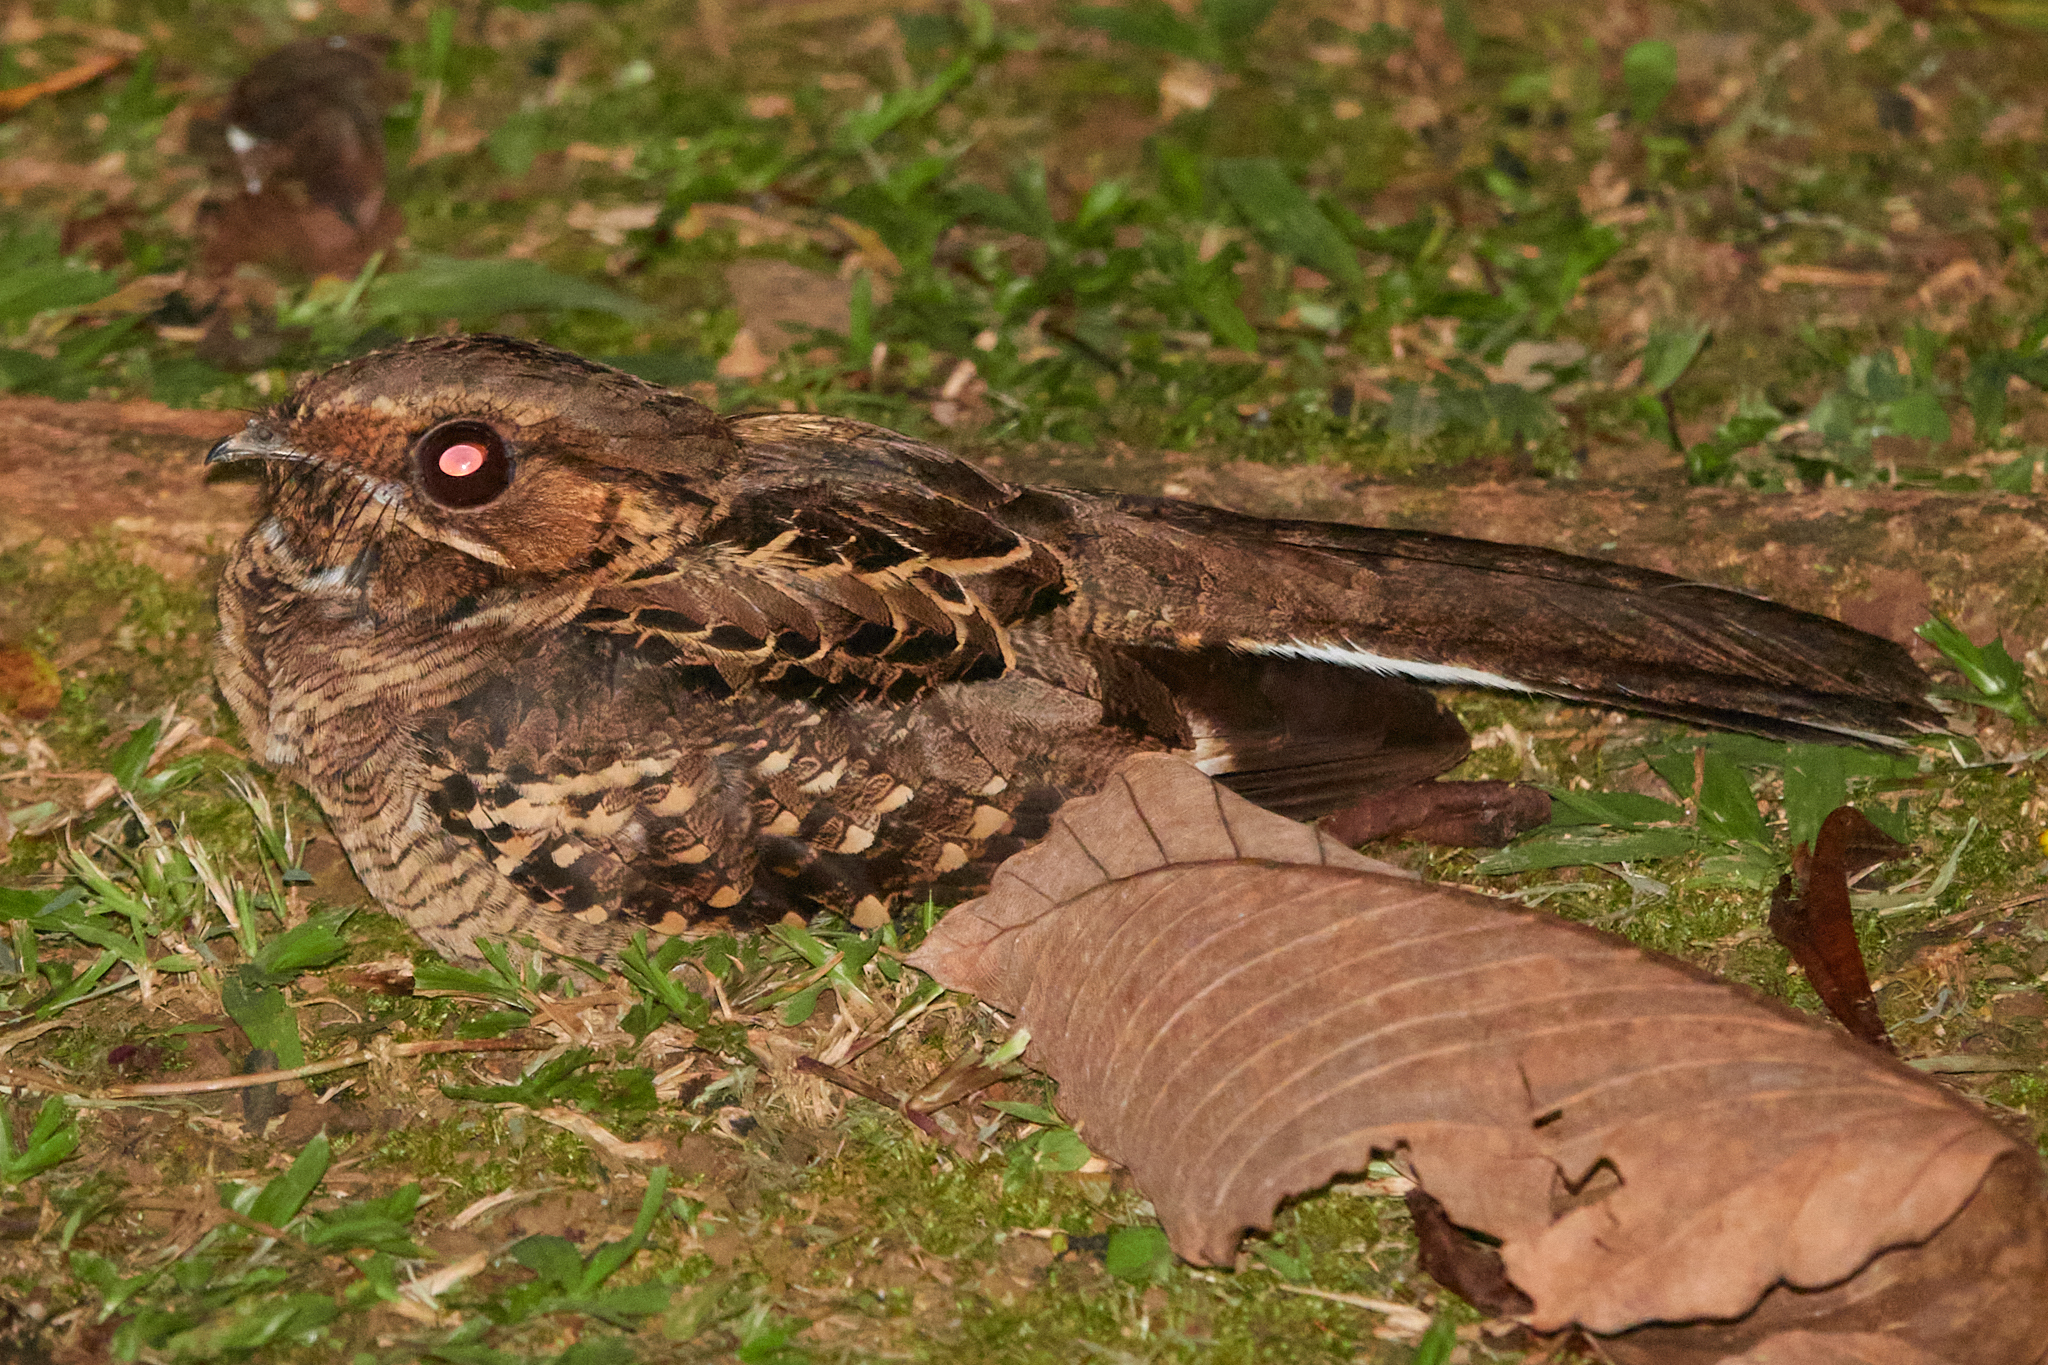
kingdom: Animalia
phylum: Chordata
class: Aves
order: Caprimulgiformes
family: Caprimulgidae
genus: Nyctidromus
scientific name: Nyctidromus albicollis
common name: Pauraque
